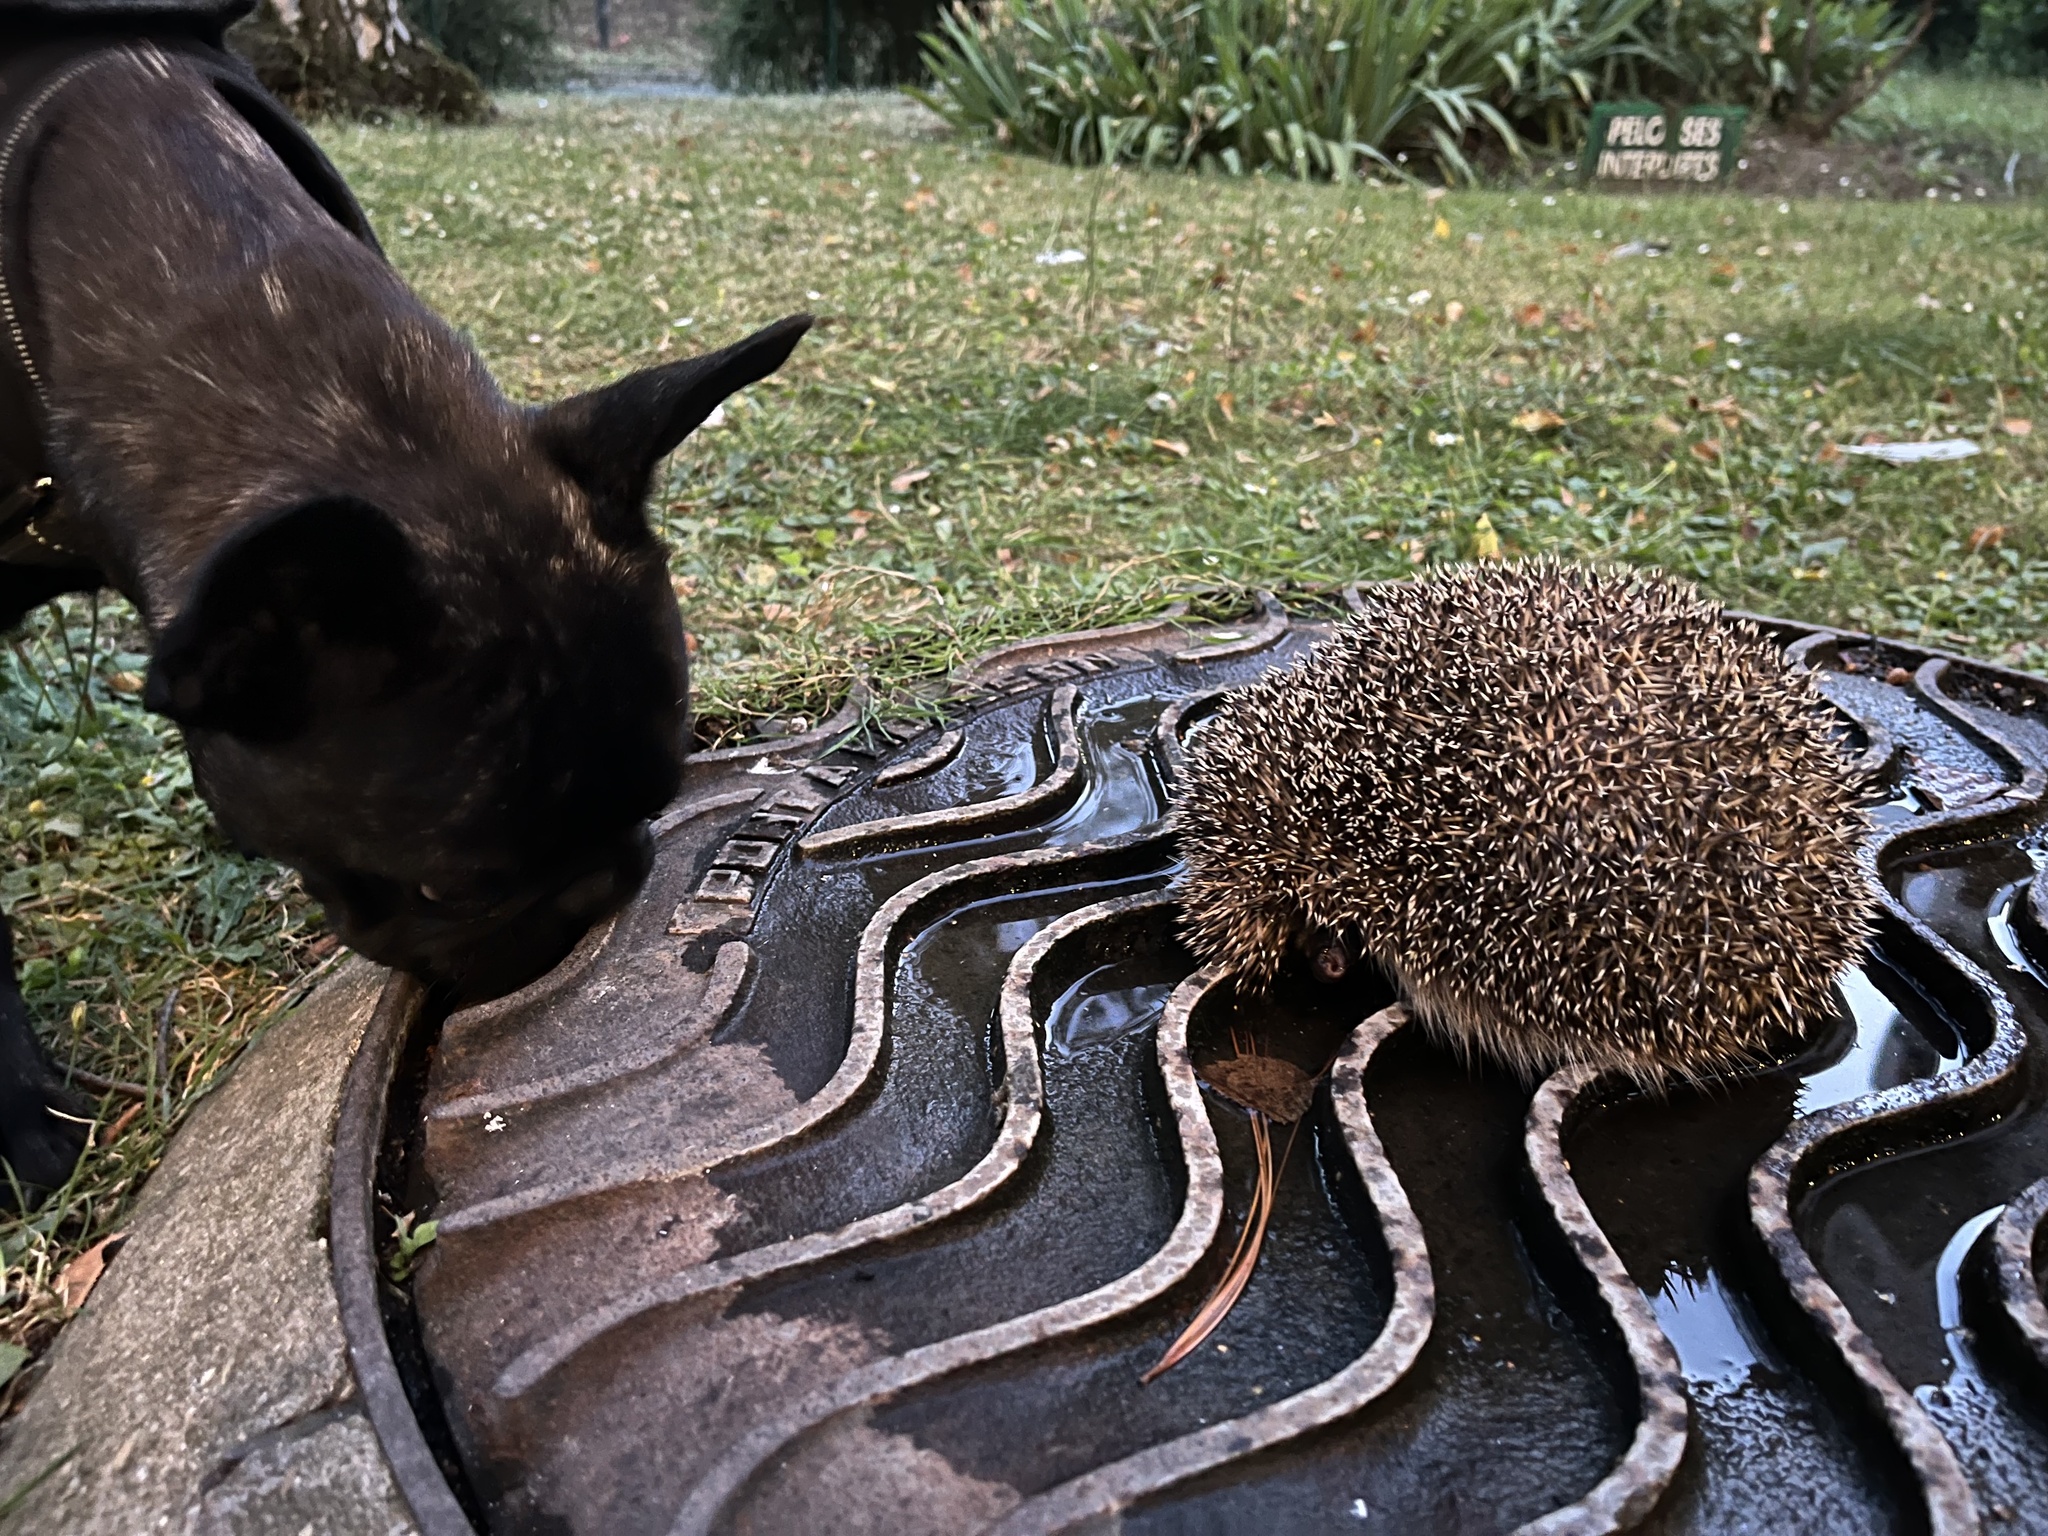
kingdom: Animalia
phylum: Chordata
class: Mammalia
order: Erinaceomorpha
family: Erinaceidae
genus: Erinaceus
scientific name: Erinaceus europaeus
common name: West european hedgehog
